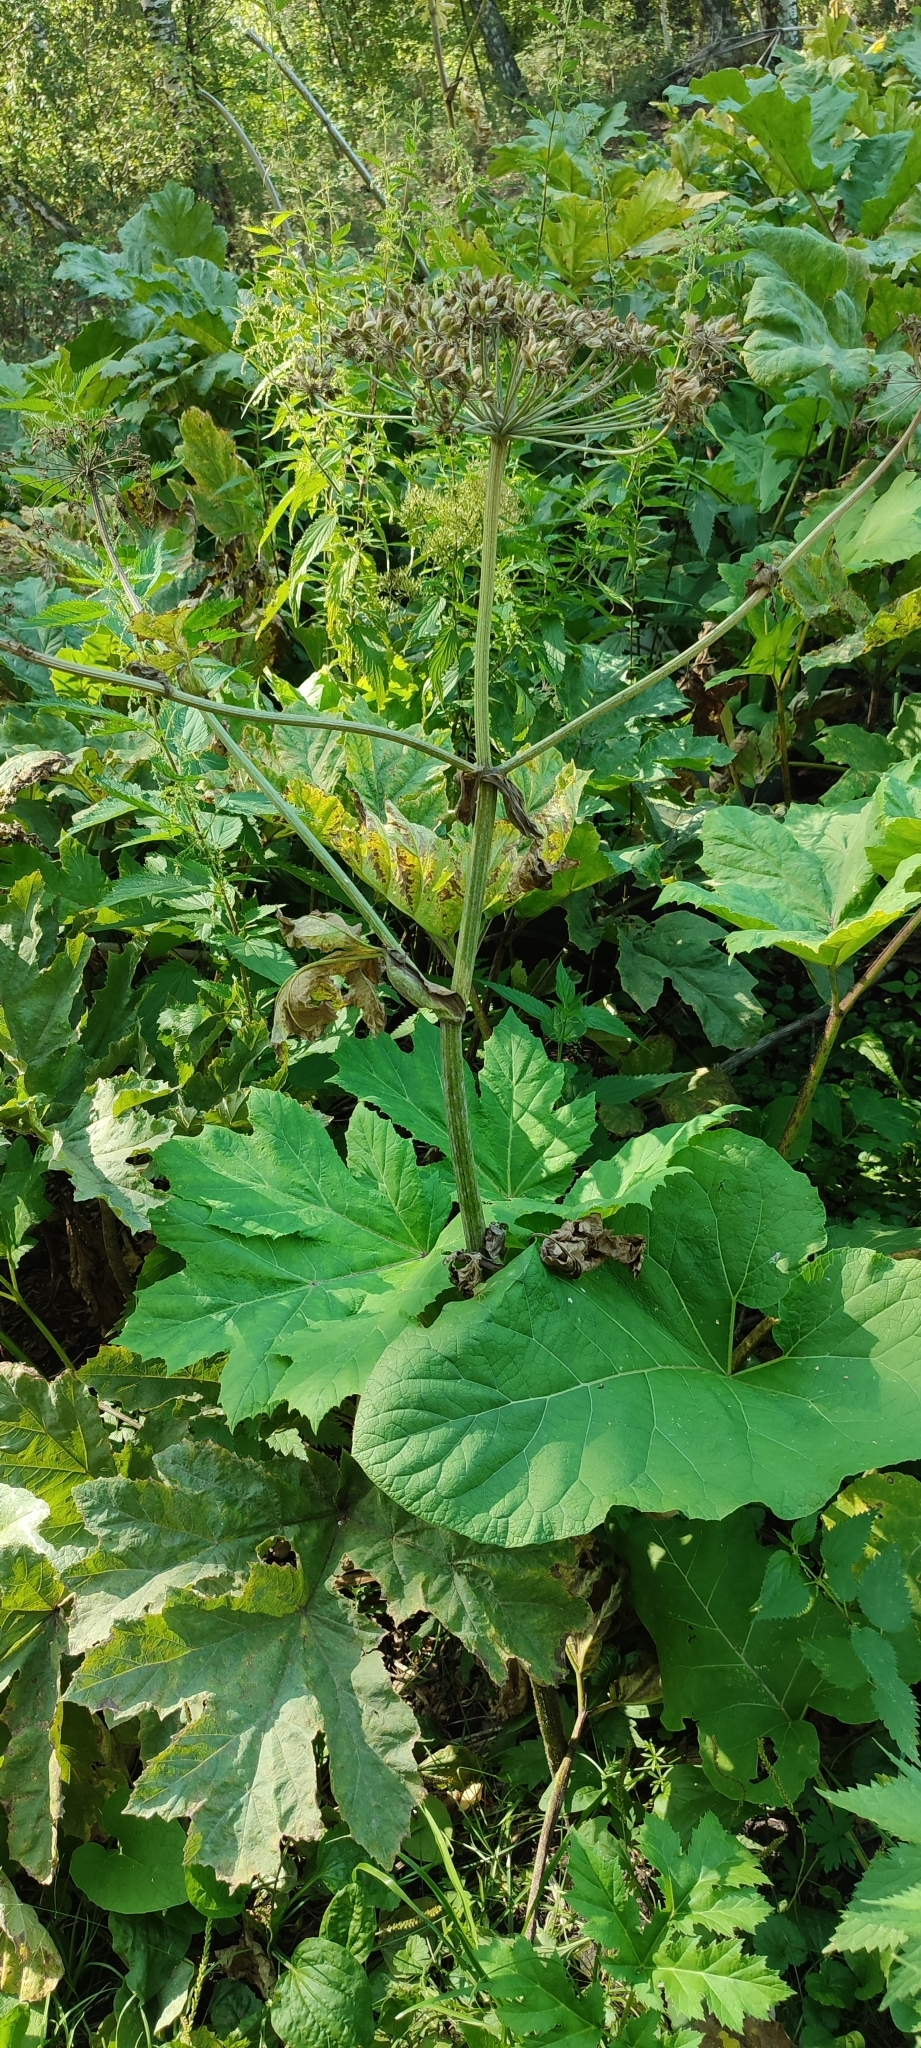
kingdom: Plantae
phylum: Tracheophyta
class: Magnoliopsida
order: Apiales
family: Apiaceae
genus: Heracleum
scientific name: Heracleum sosnowskyi
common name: Sosnowsky's hogweed
